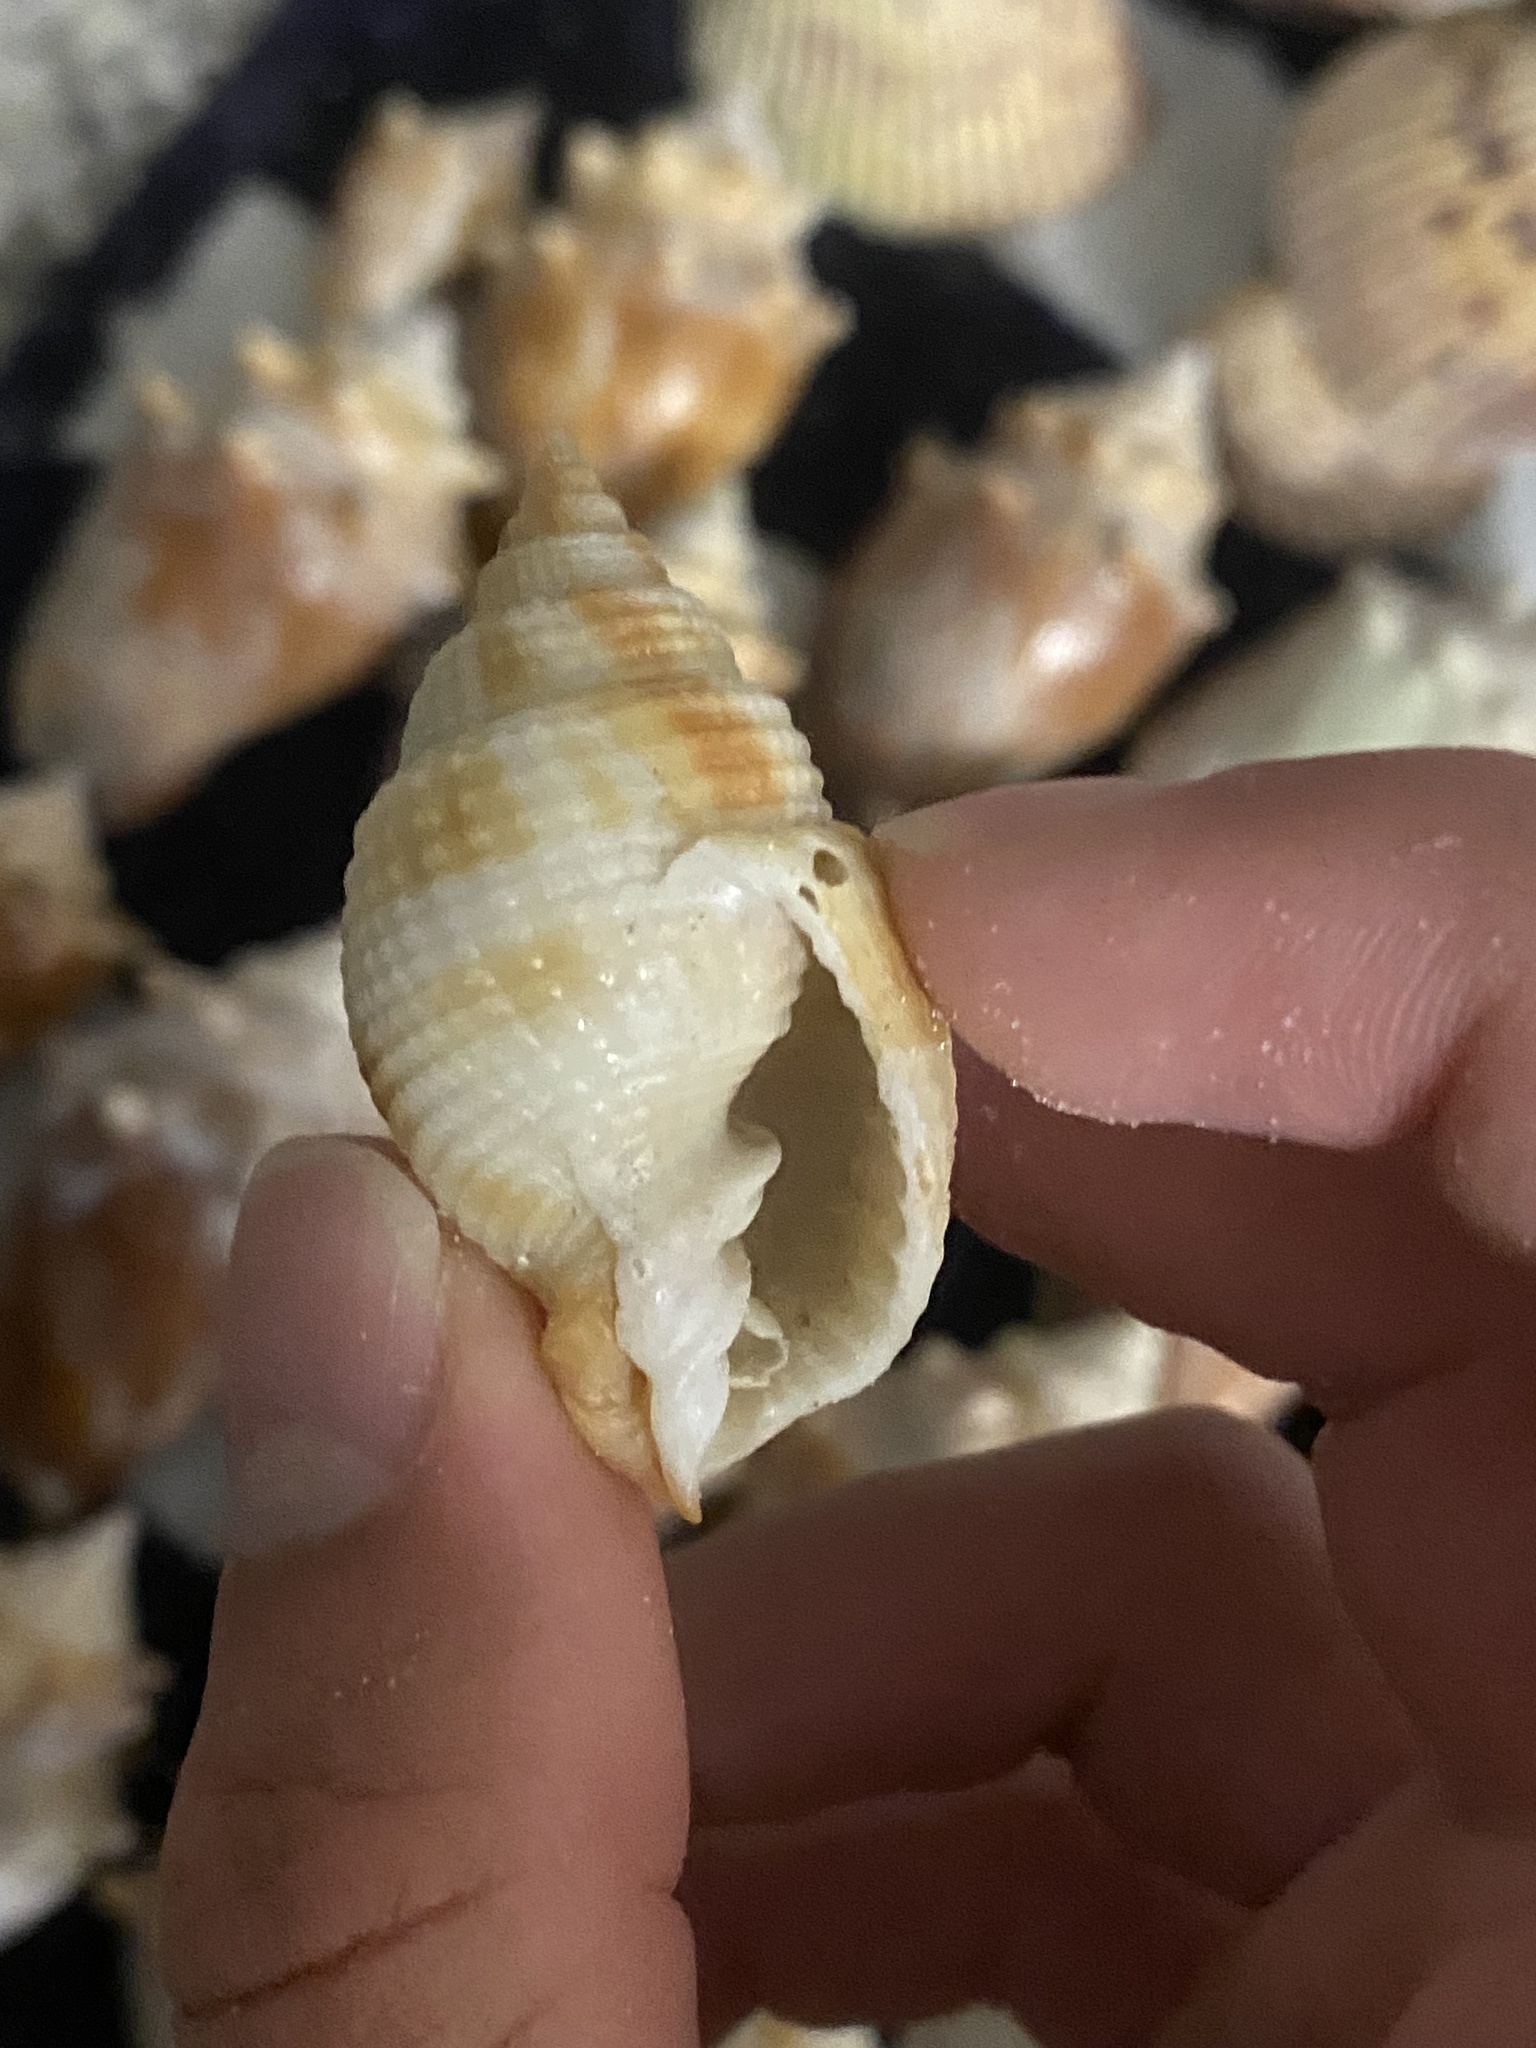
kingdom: Animalia
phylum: Mollusca
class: Gastropoda
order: Neogastropoda
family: Cancellariidae
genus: Cancellaria
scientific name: Cancellaria reticulata
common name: Common nutmeg
